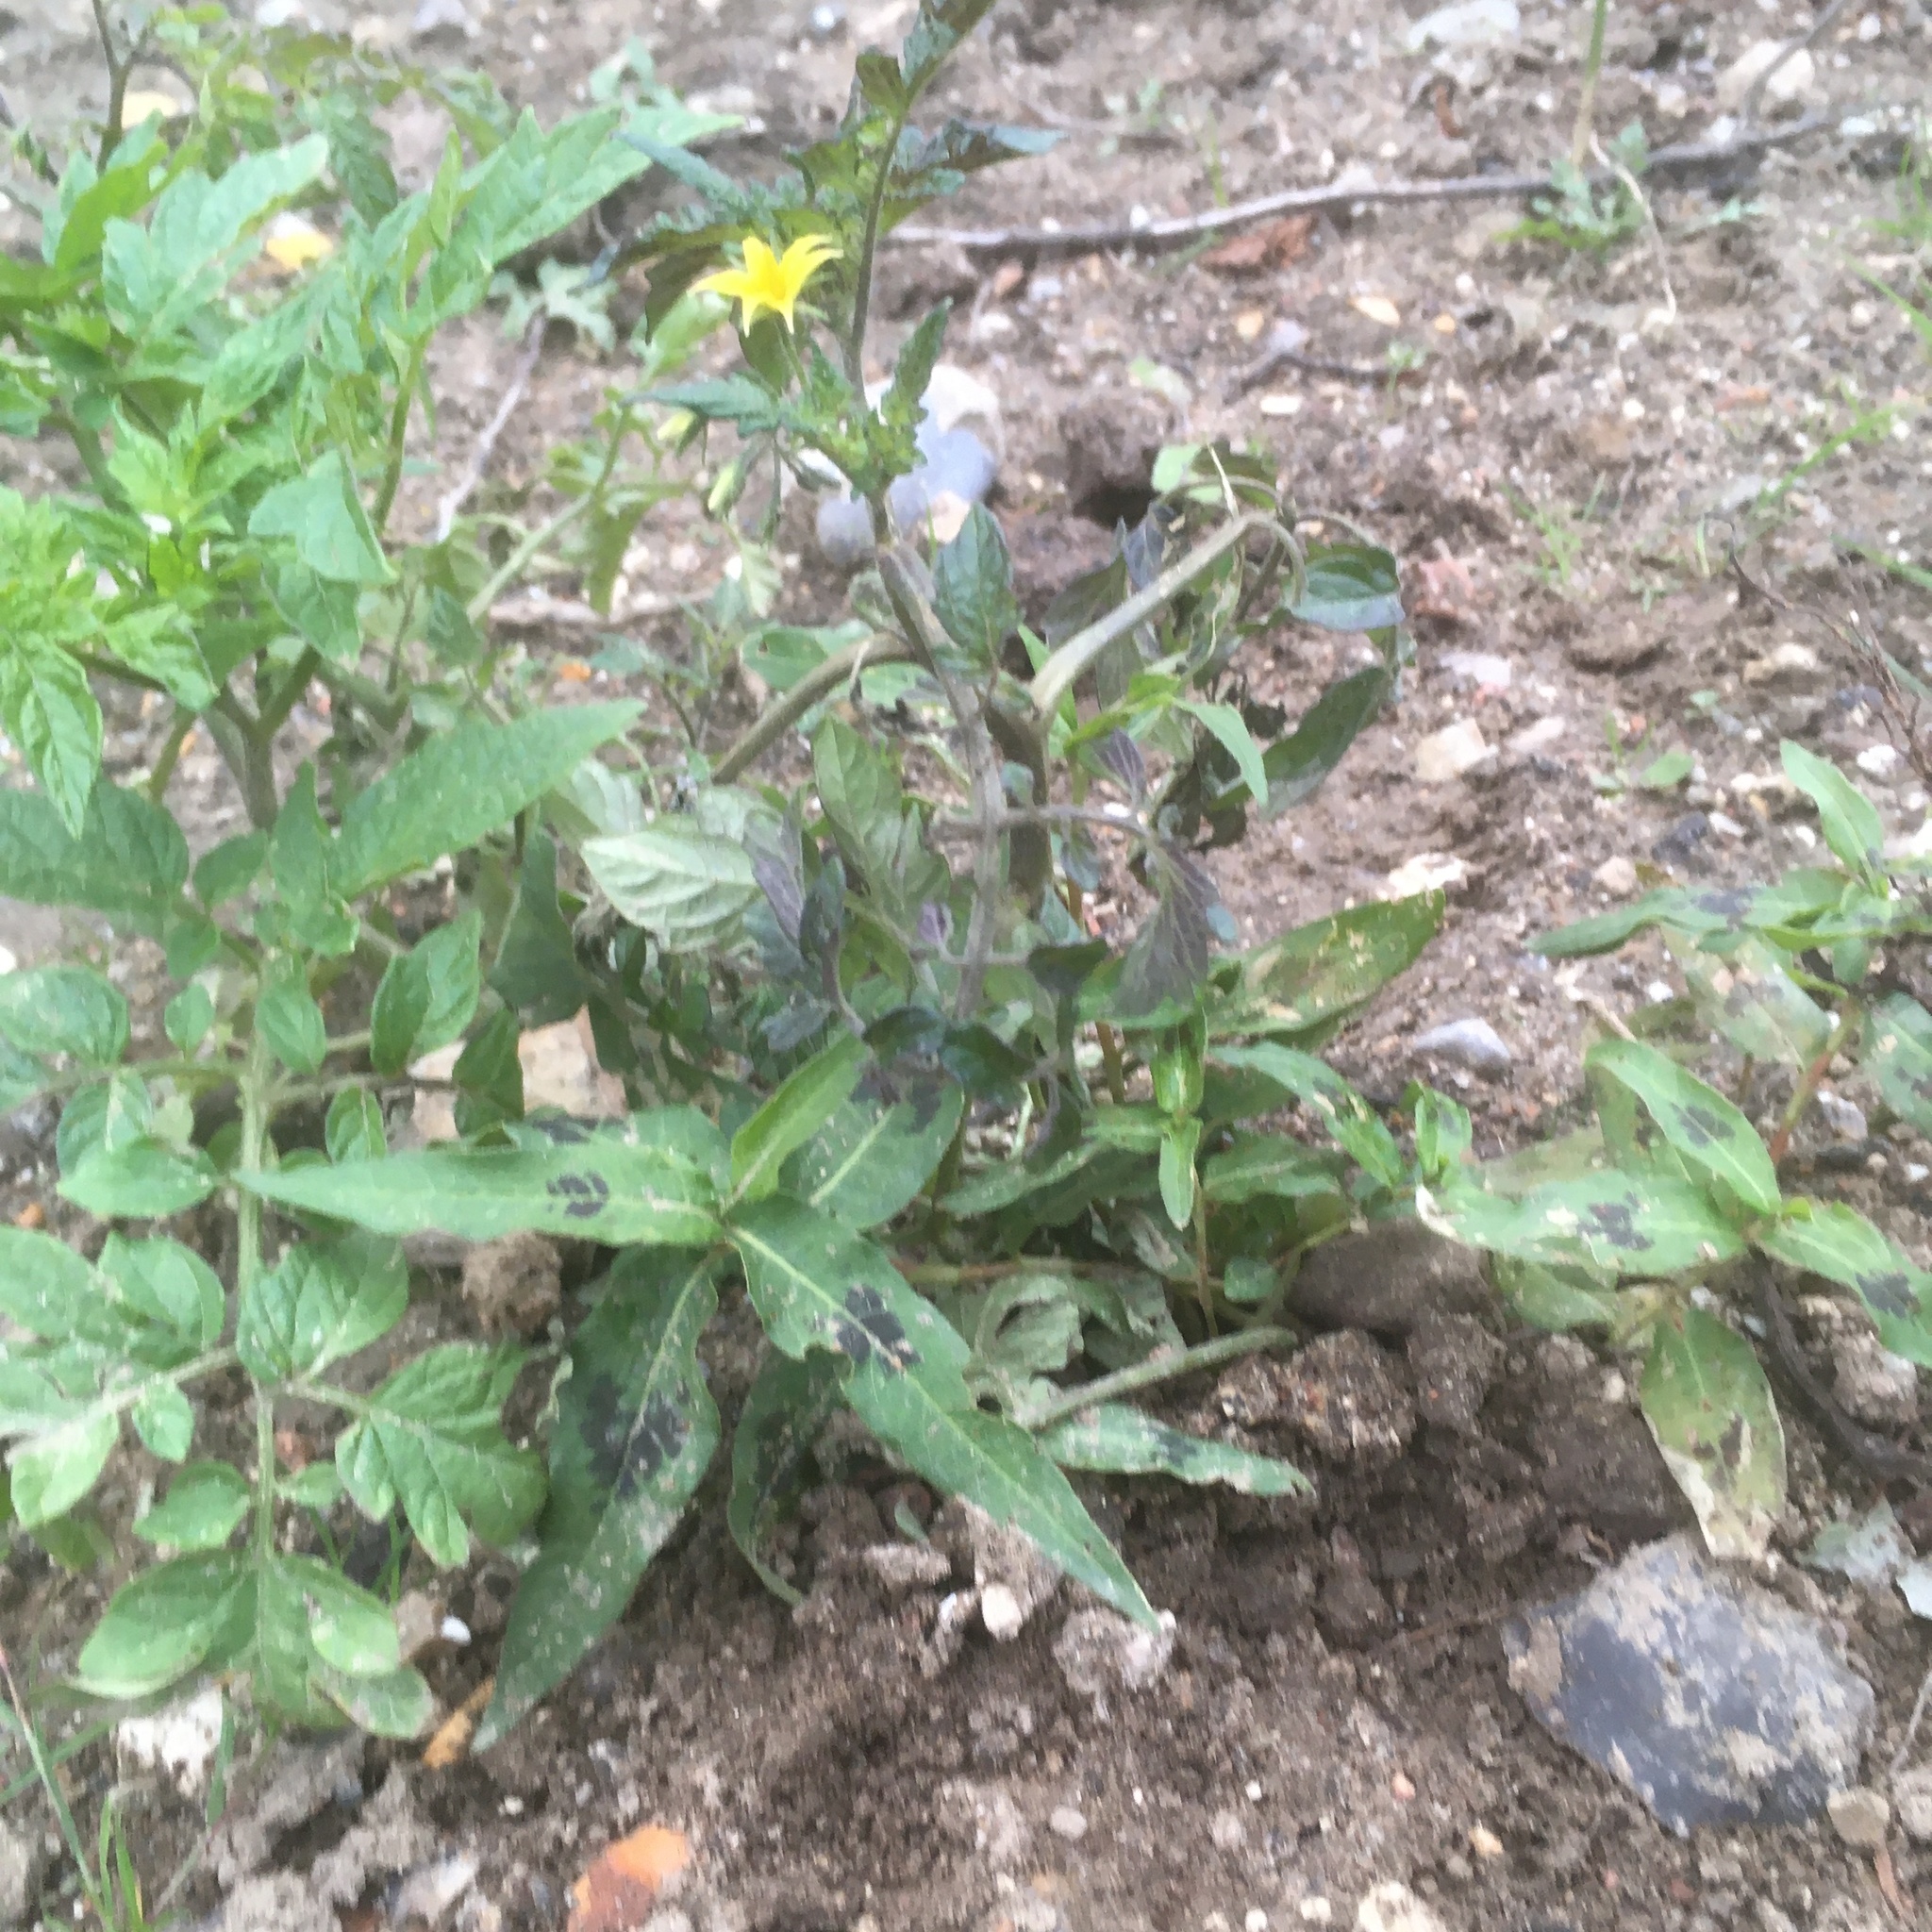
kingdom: Plantae
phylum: Tracheophyta
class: Magnoliopsida
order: Solanales
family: Solanaceae
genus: Solanum
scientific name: Solanum lycopersicum
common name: Garden tomato
